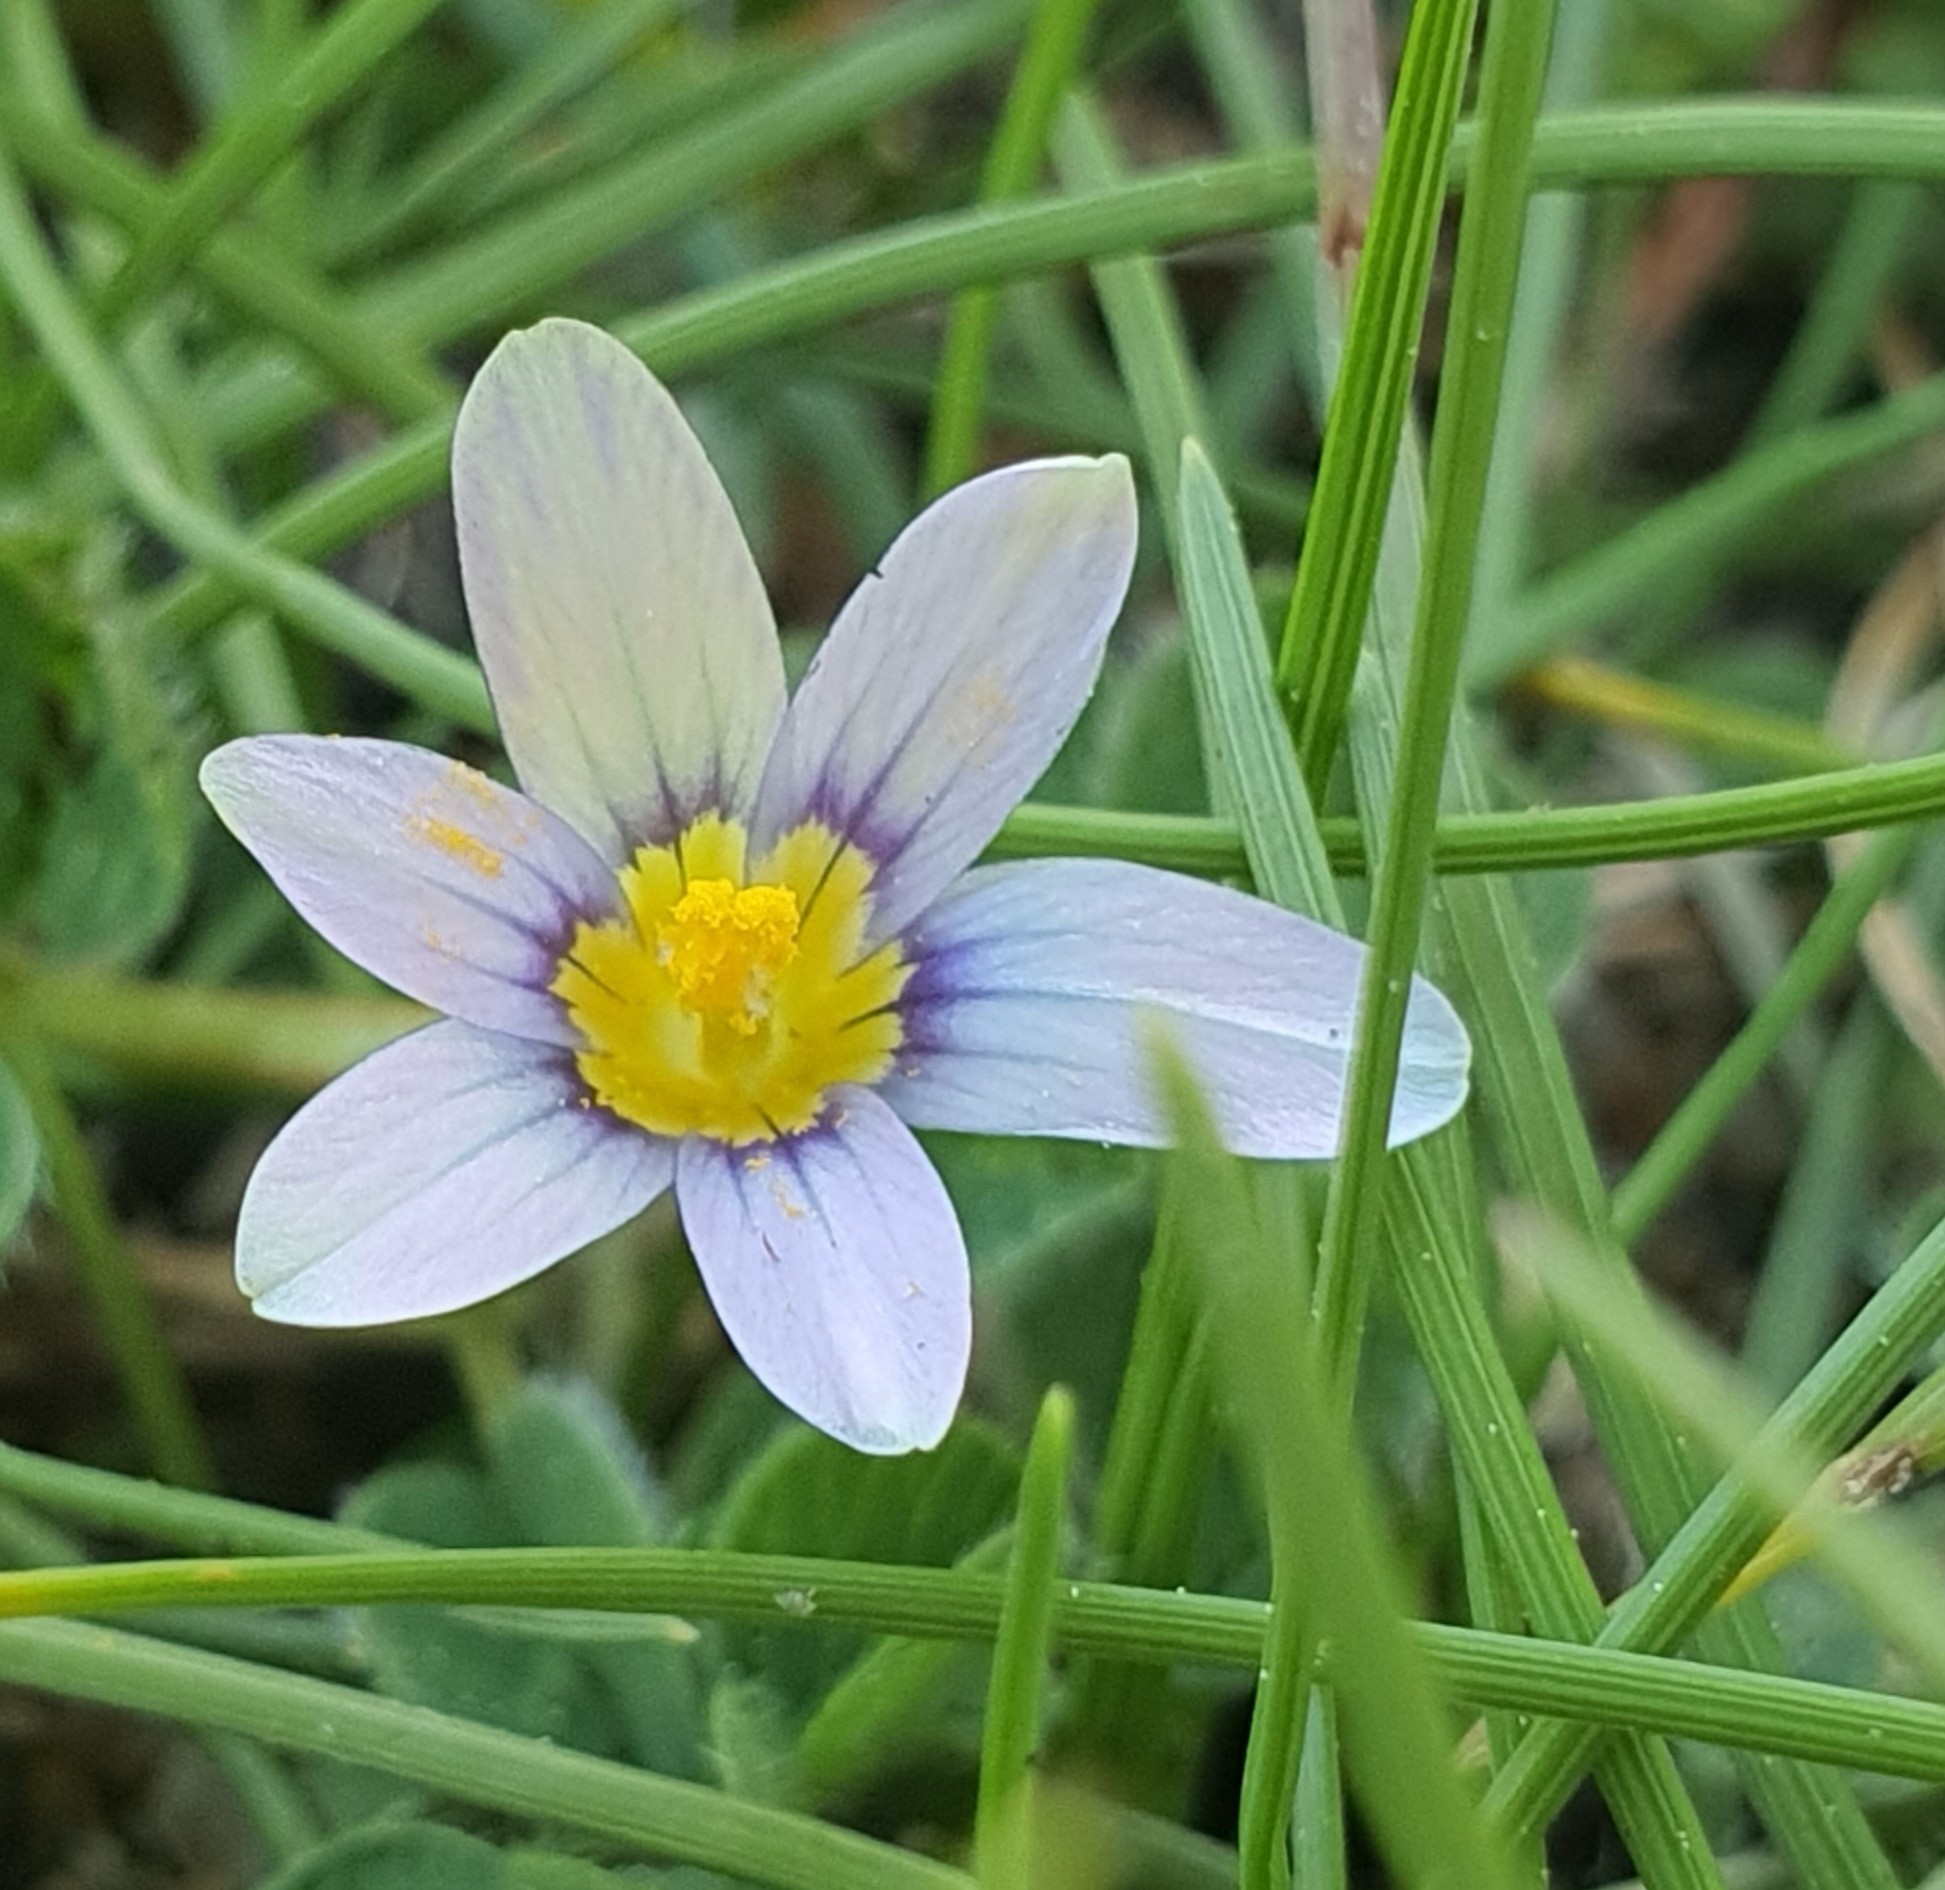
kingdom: Plantae
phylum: Tracheophyta
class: Liliopsida
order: Asparagales
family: Iridaceae
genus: Romulea
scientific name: Romulea minutiflora
